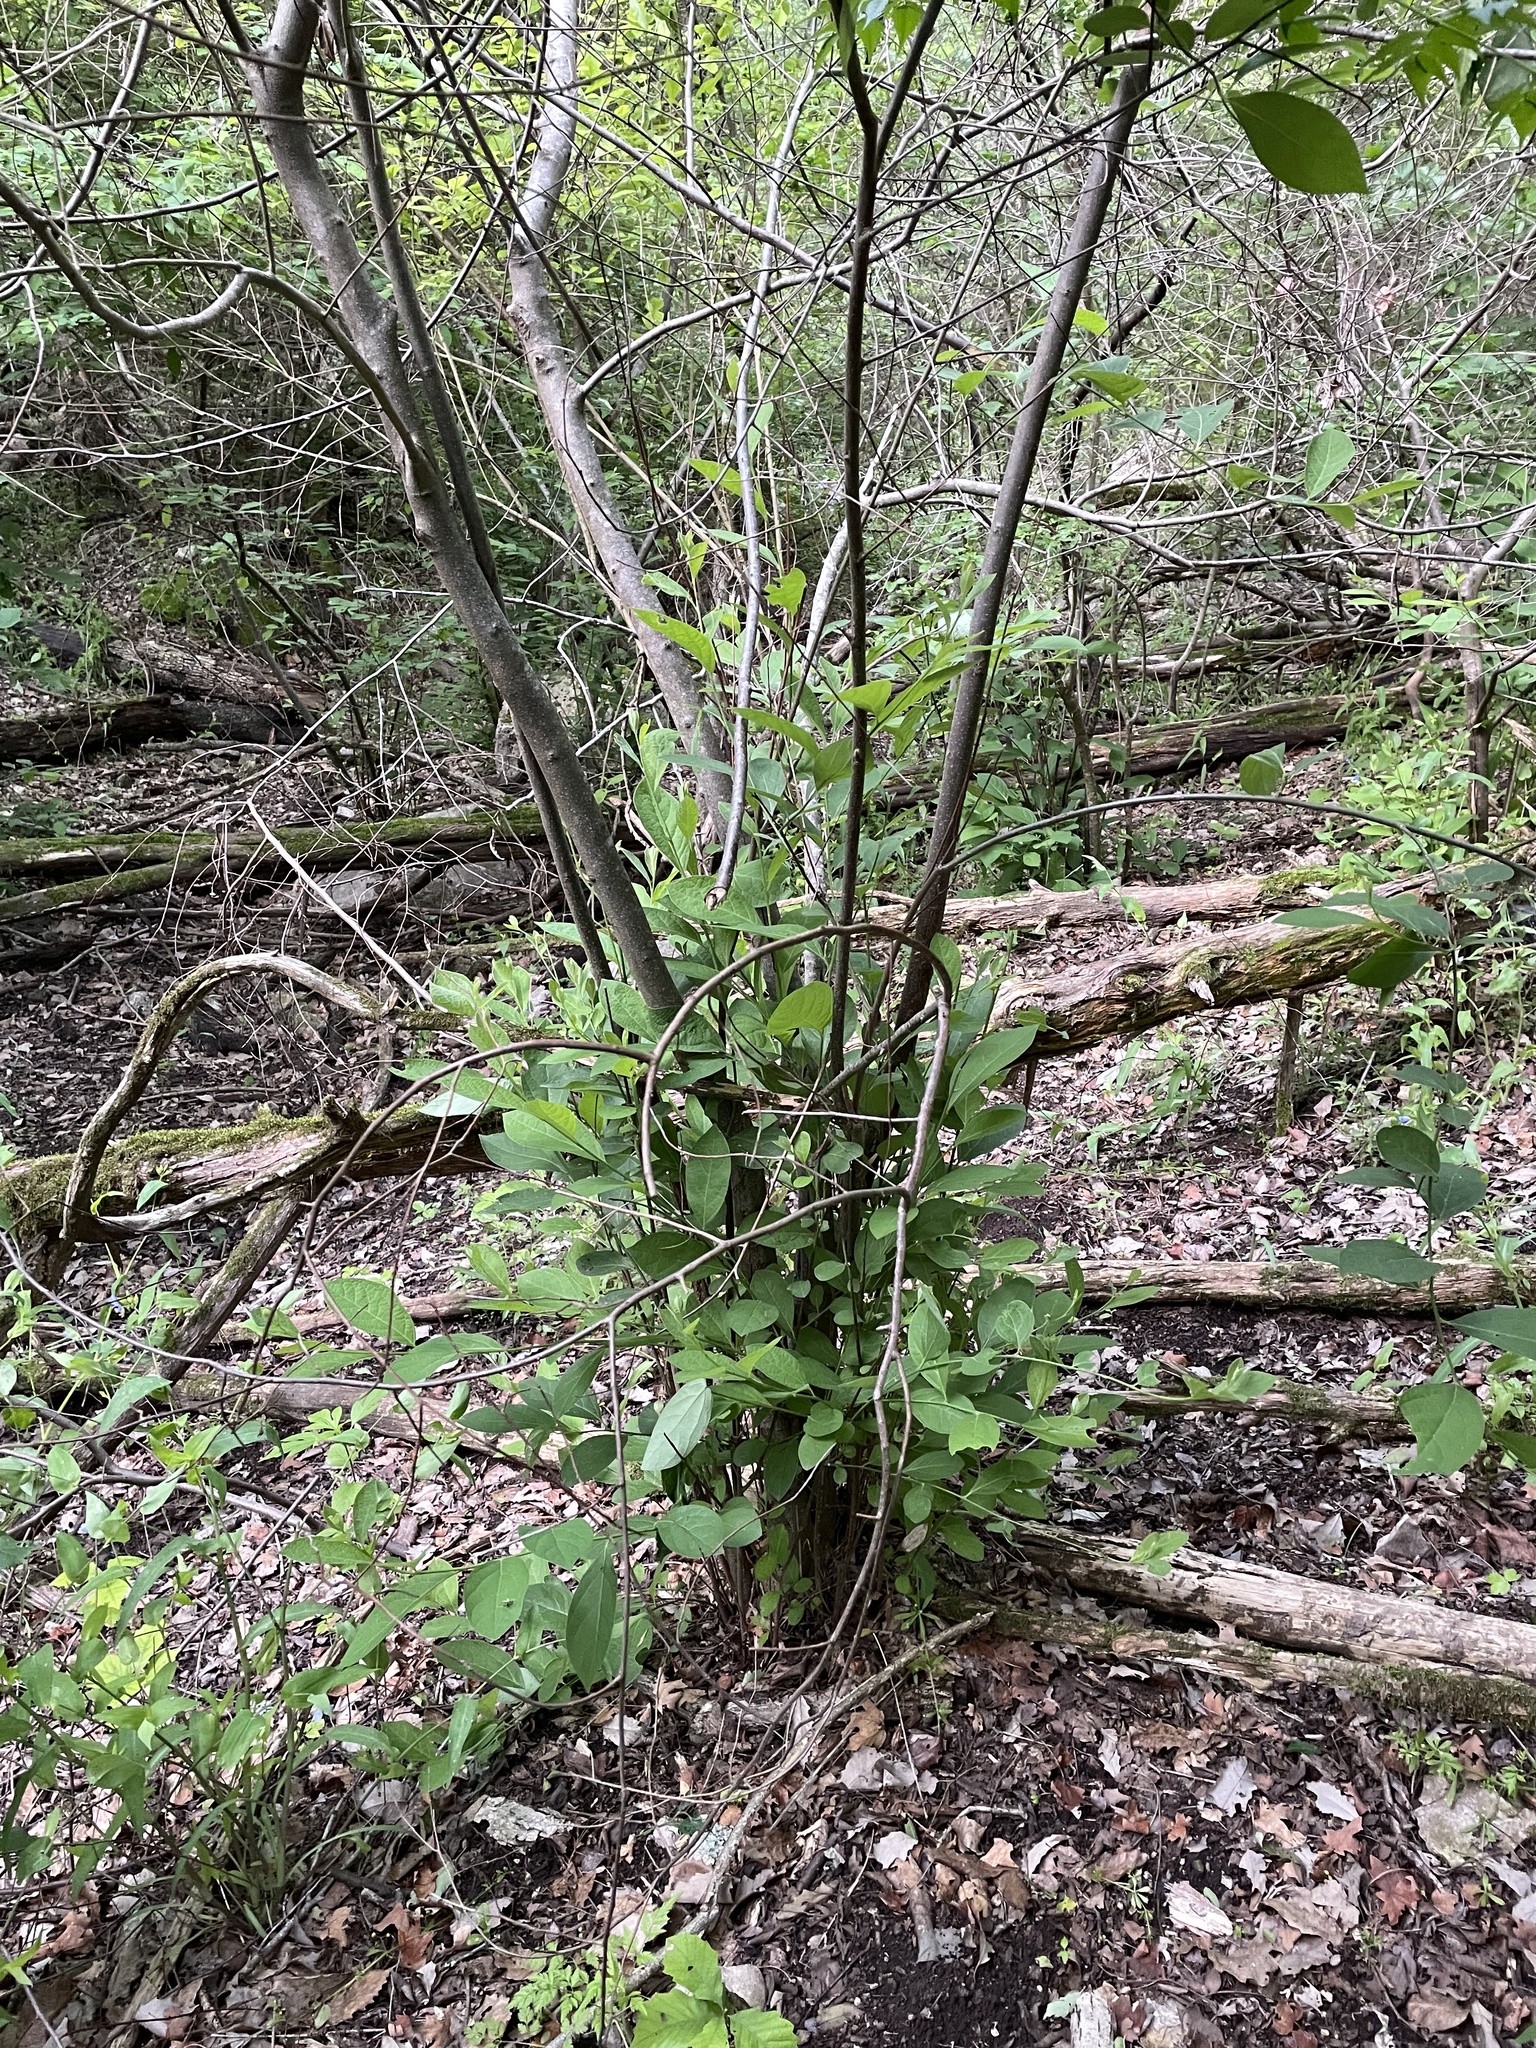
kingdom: Plantae
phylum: Tracheophyta
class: Magnoliopsida
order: Laurales
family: Lauraceae
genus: Lindera
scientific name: Lindera benzoin
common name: Spicebush
